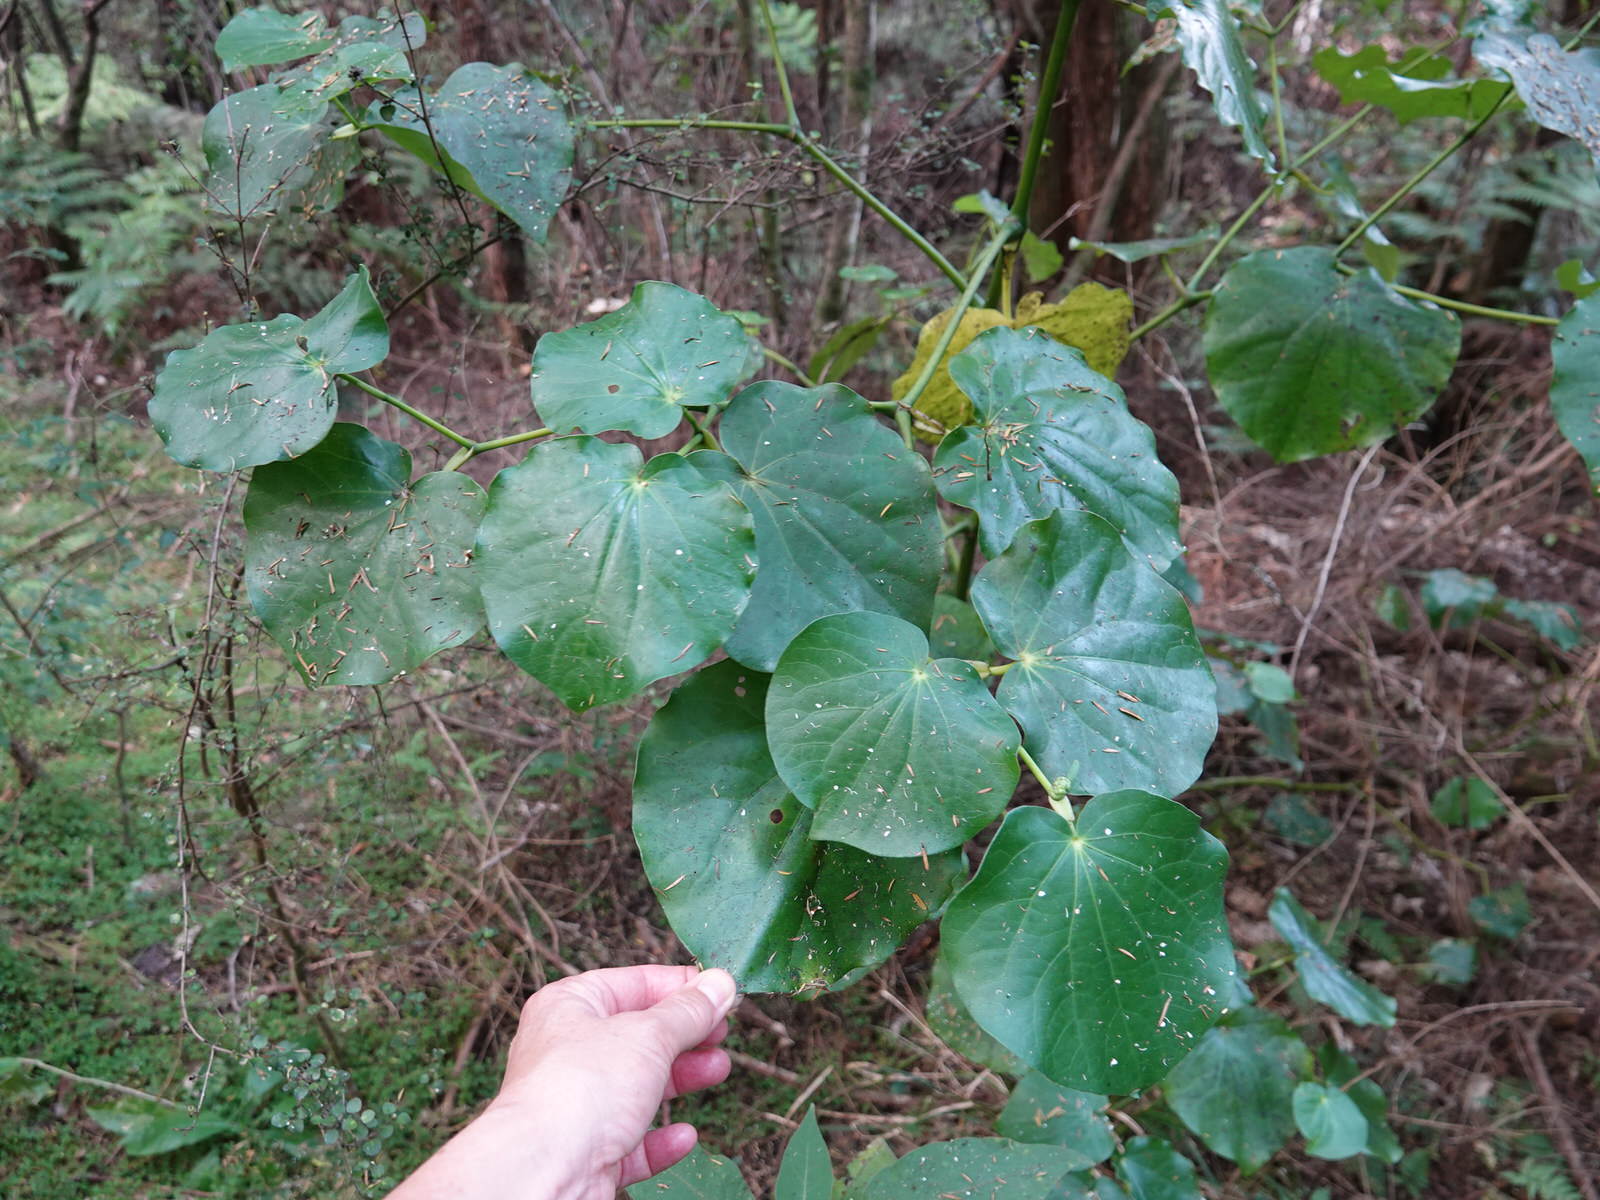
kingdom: Plantae
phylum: Tracheophyta
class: Magnoliopsida
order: Piperales
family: Piperaceae
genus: Macropiper
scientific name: Macropiper excelsum
